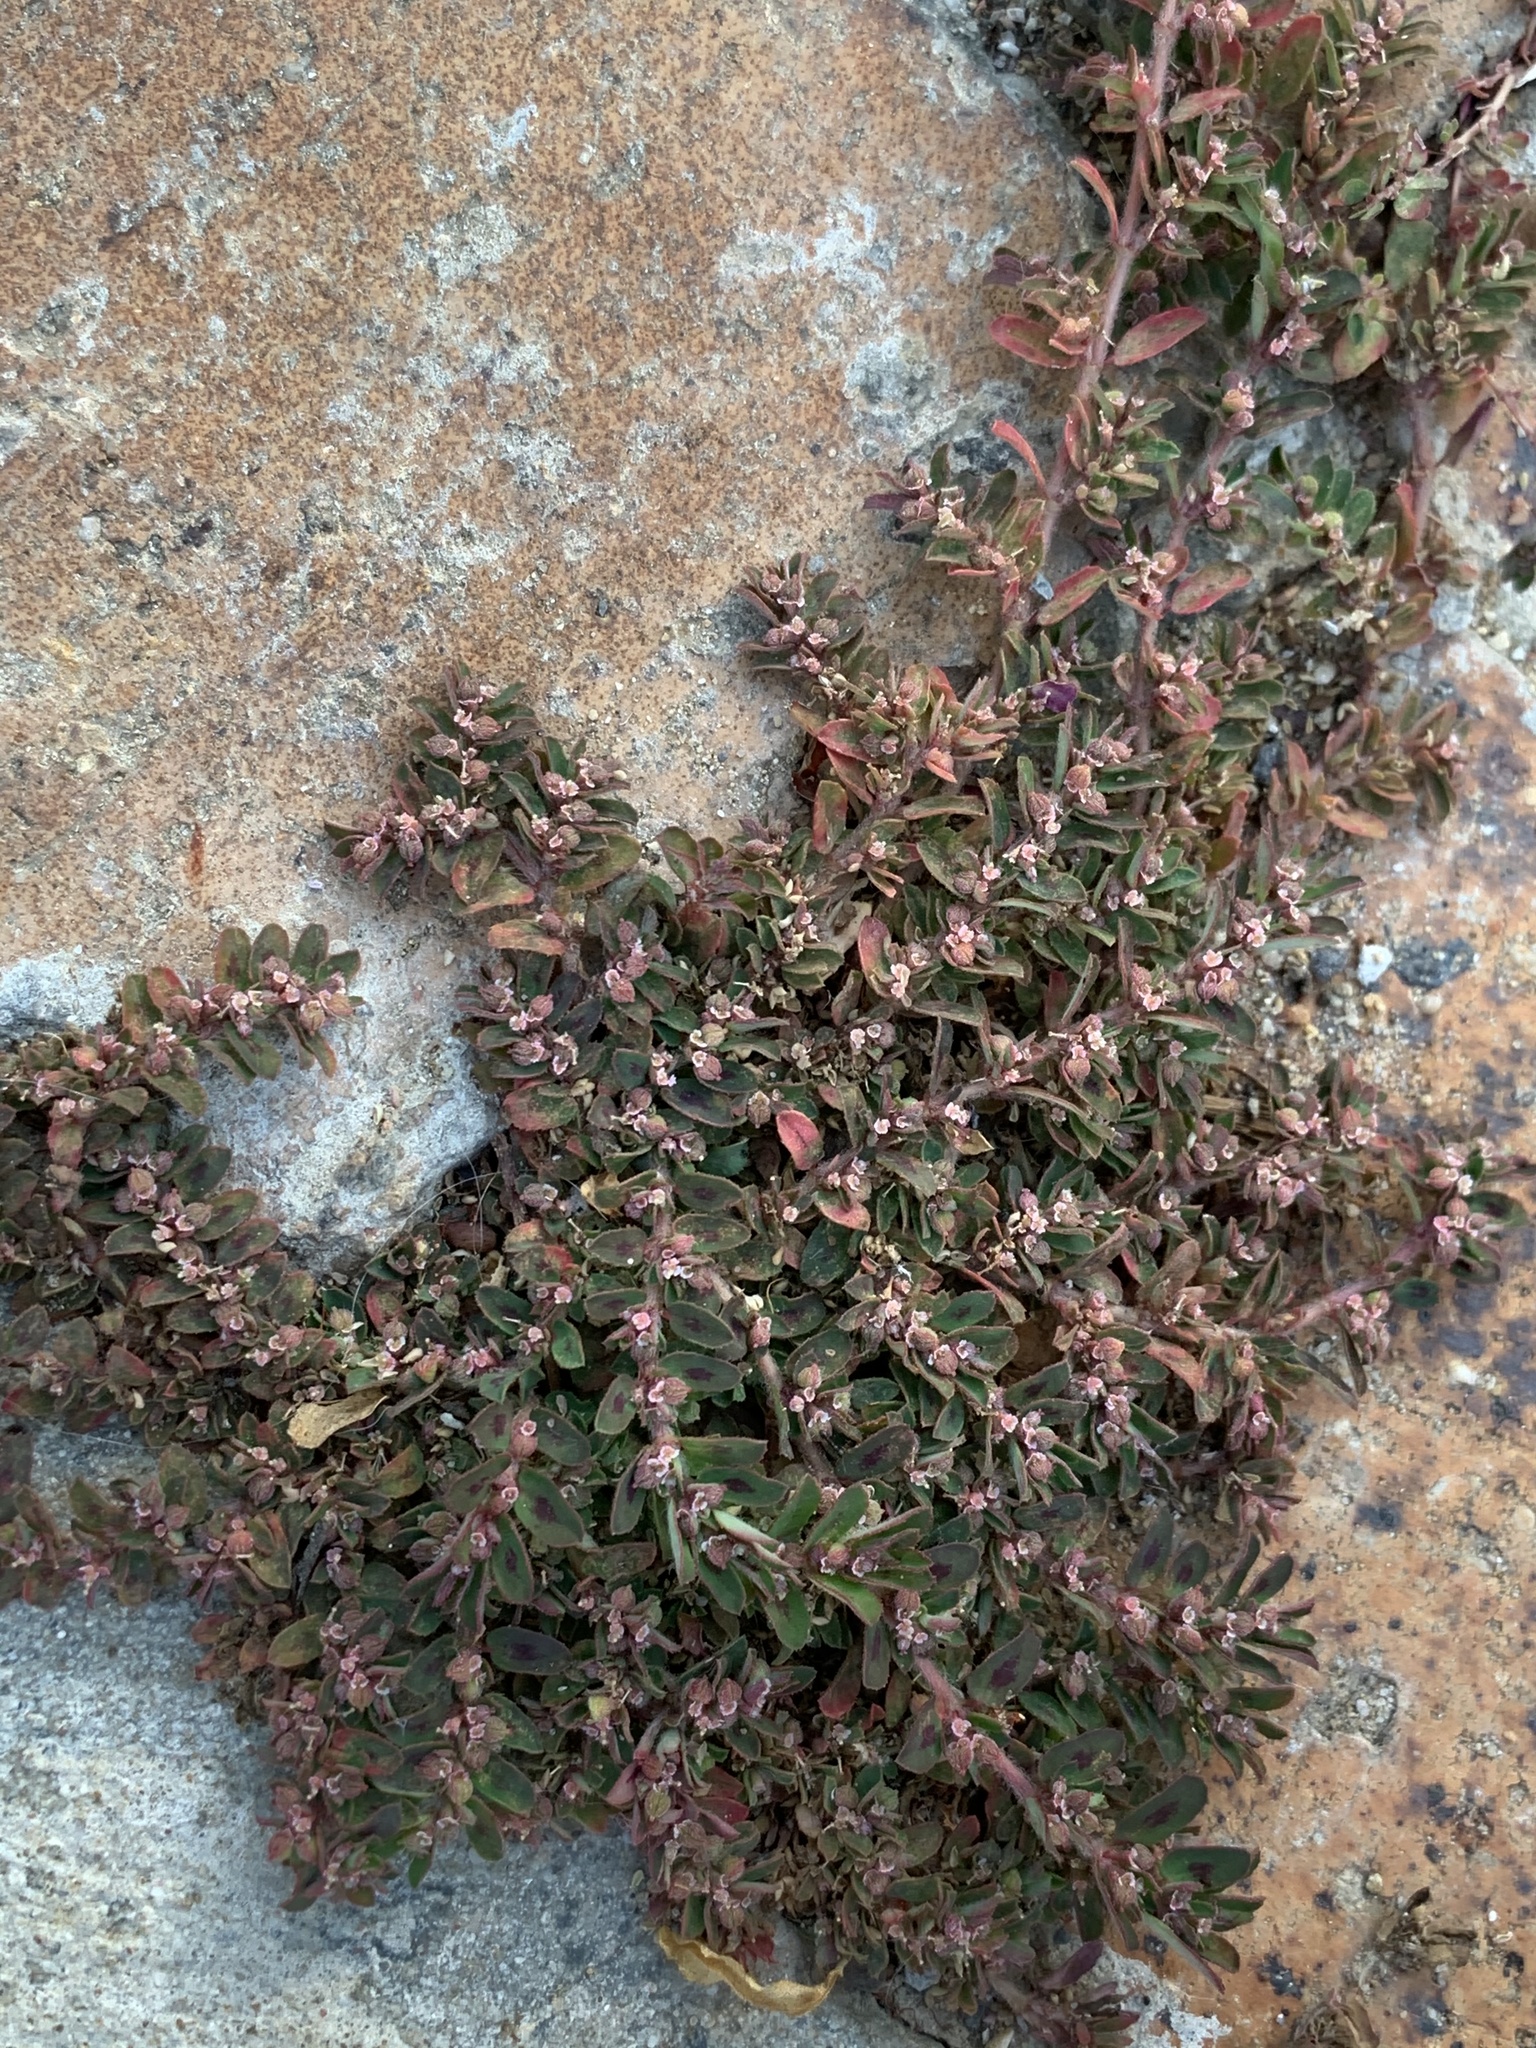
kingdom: Plantae
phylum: Tracheophyta
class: Magnoliopsida
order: Malpighiales
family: Euphorbiaceae
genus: Euphorbia
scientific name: Euphorbia maculata
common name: Spotted spurge
